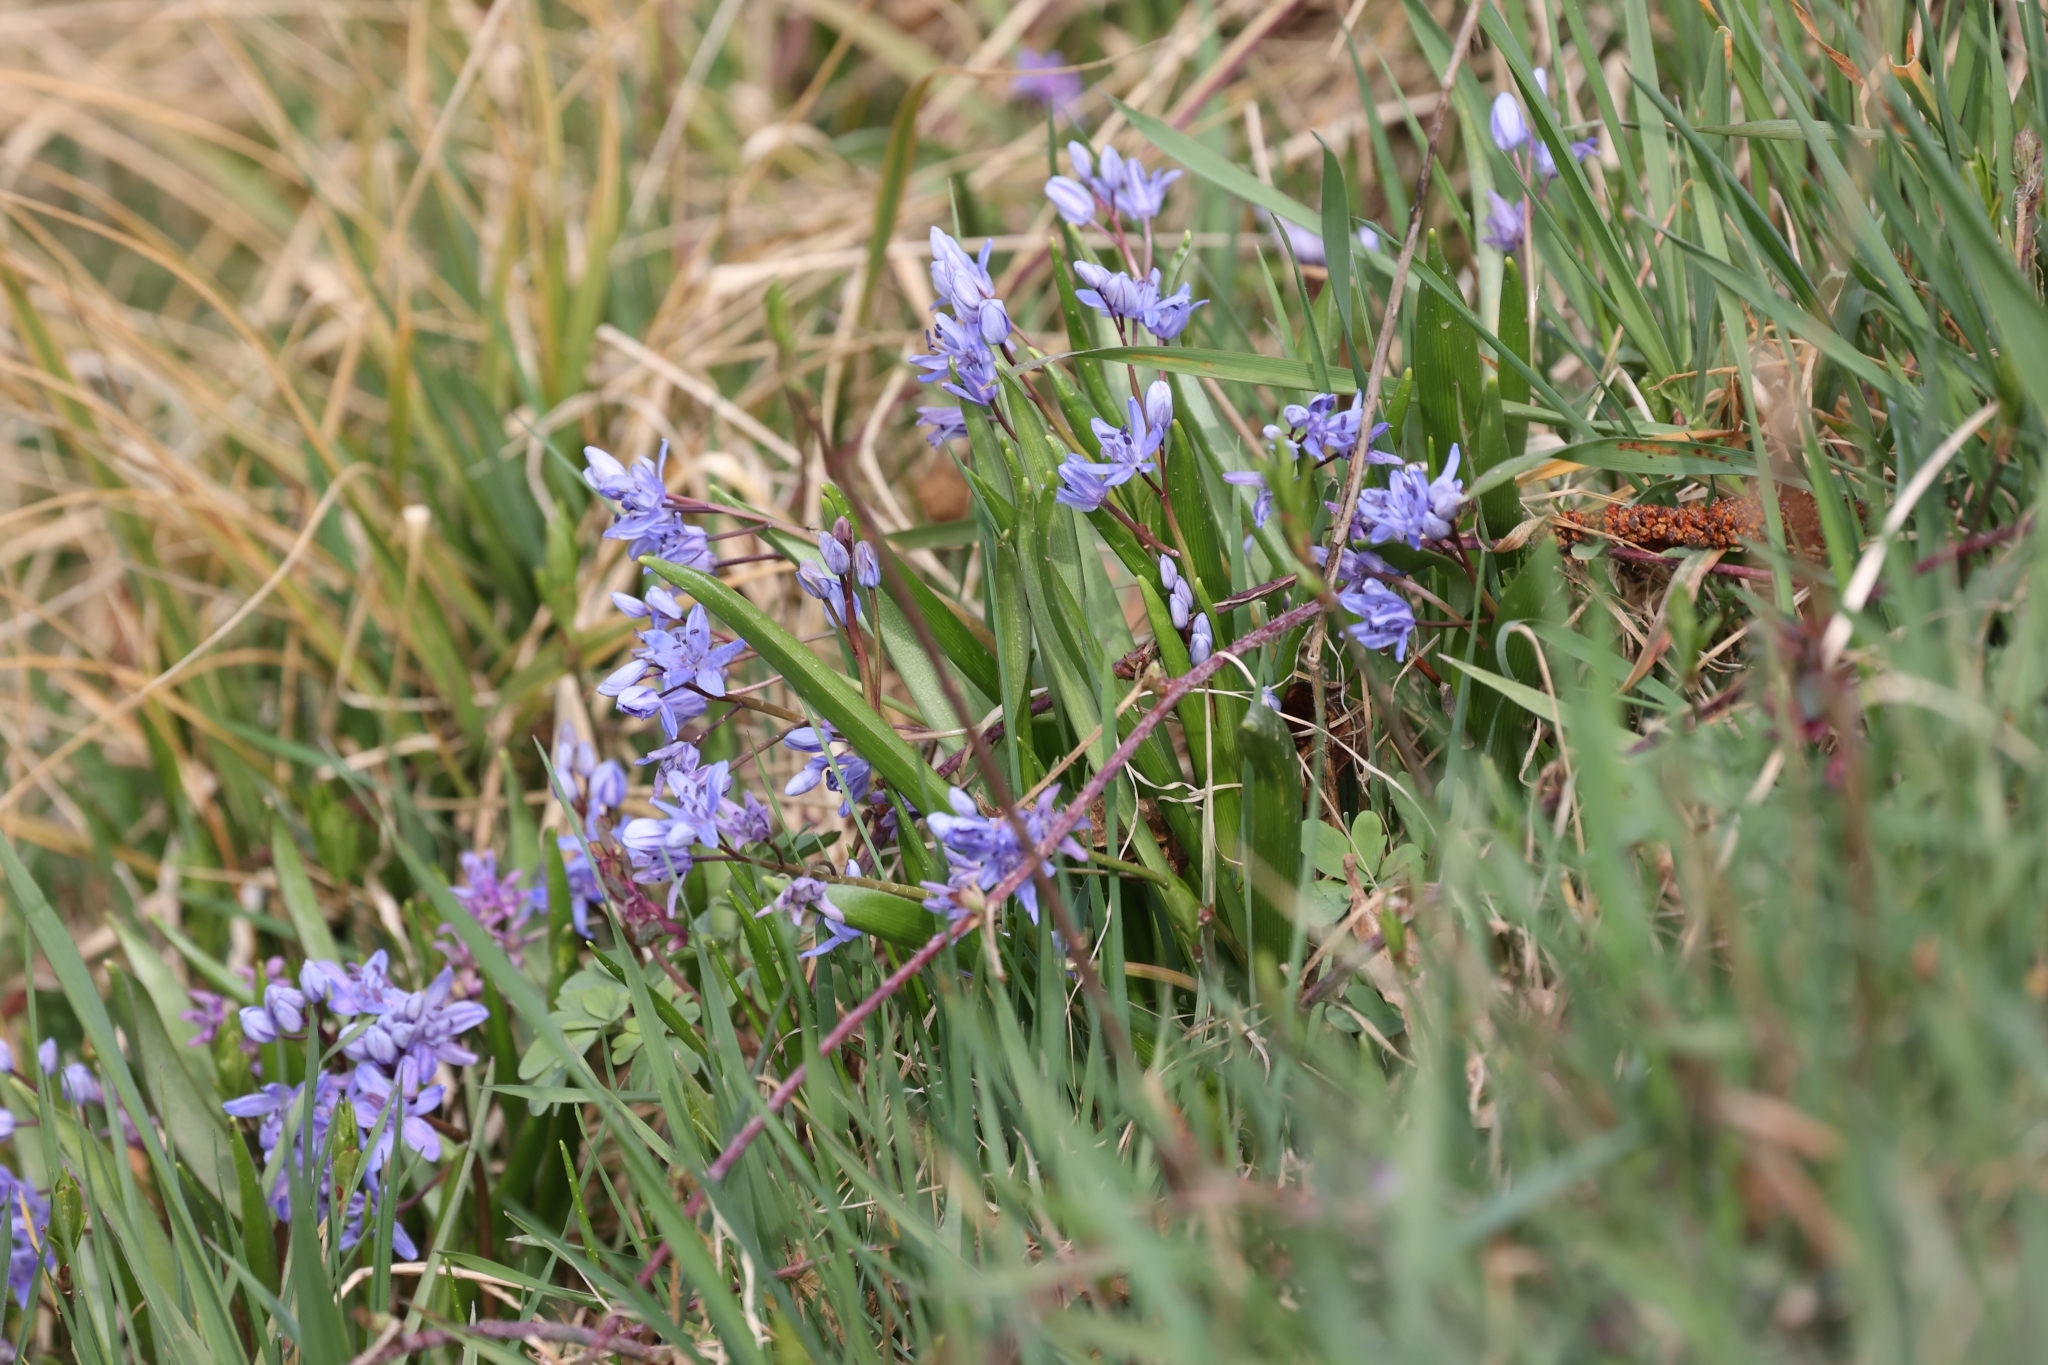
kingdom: Plantae
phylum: Tracheophyta
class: Liliopsida
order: Asparagales
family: Asparagaceae
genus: Scilla
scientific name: Scilla bifolia
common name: Alpine squill
